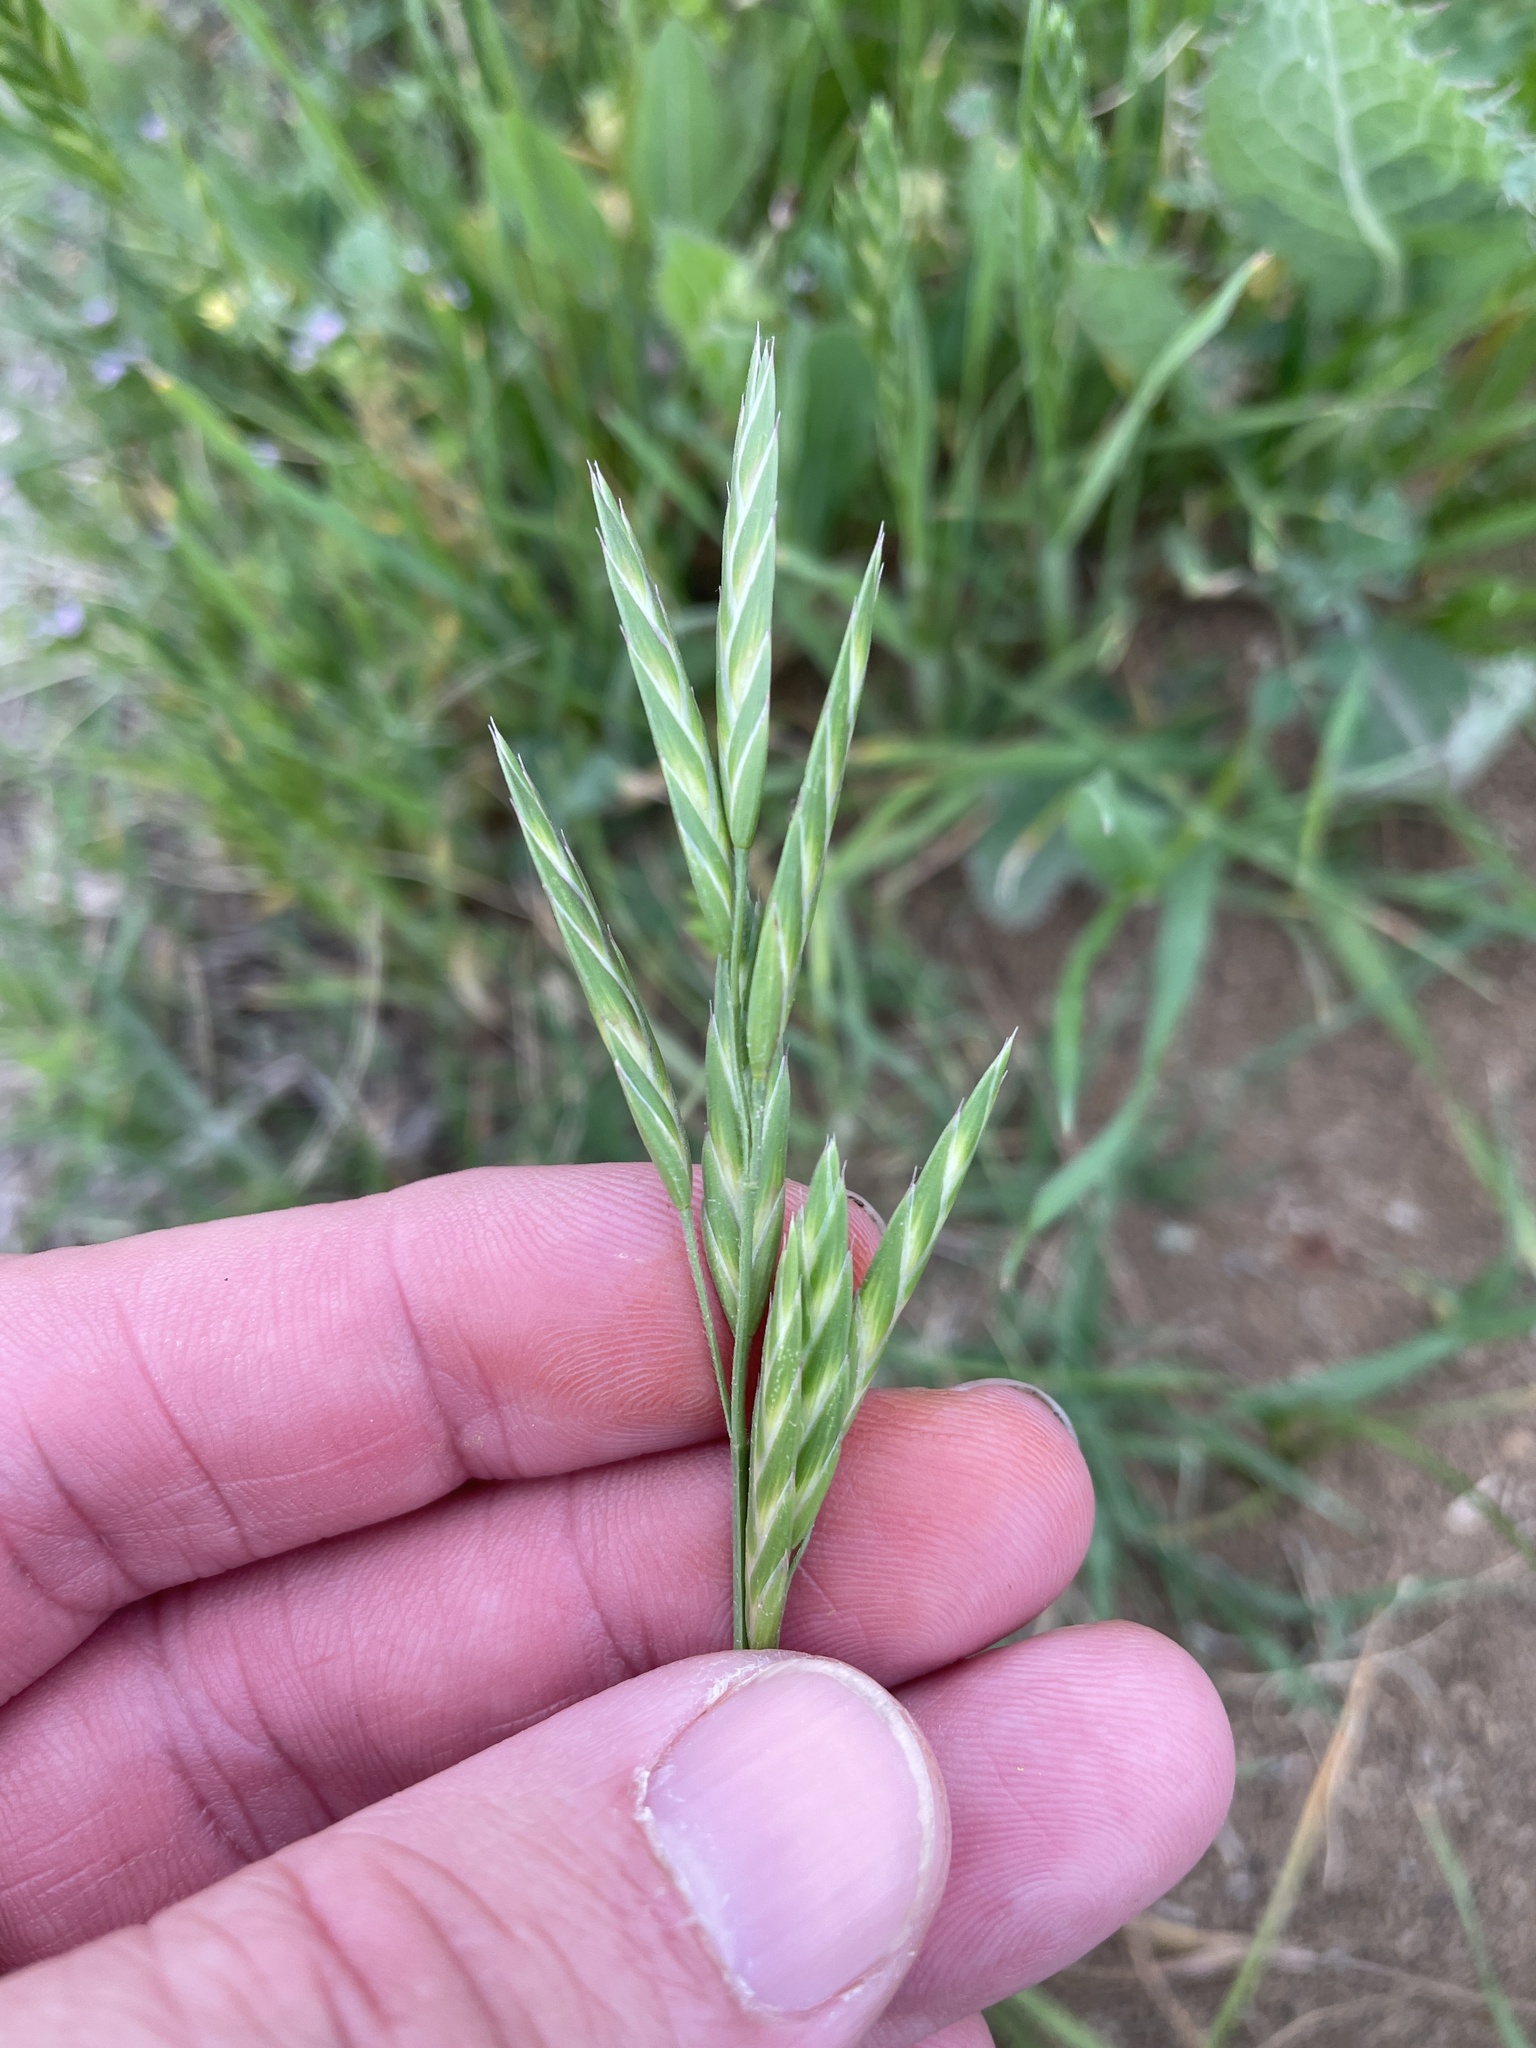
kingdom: Plantae
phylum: Tracheophyta
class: Liliopsida
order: Poales
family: Poaceae
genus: Bromus
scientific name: Bromus catharticus
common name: Rescuegrass
